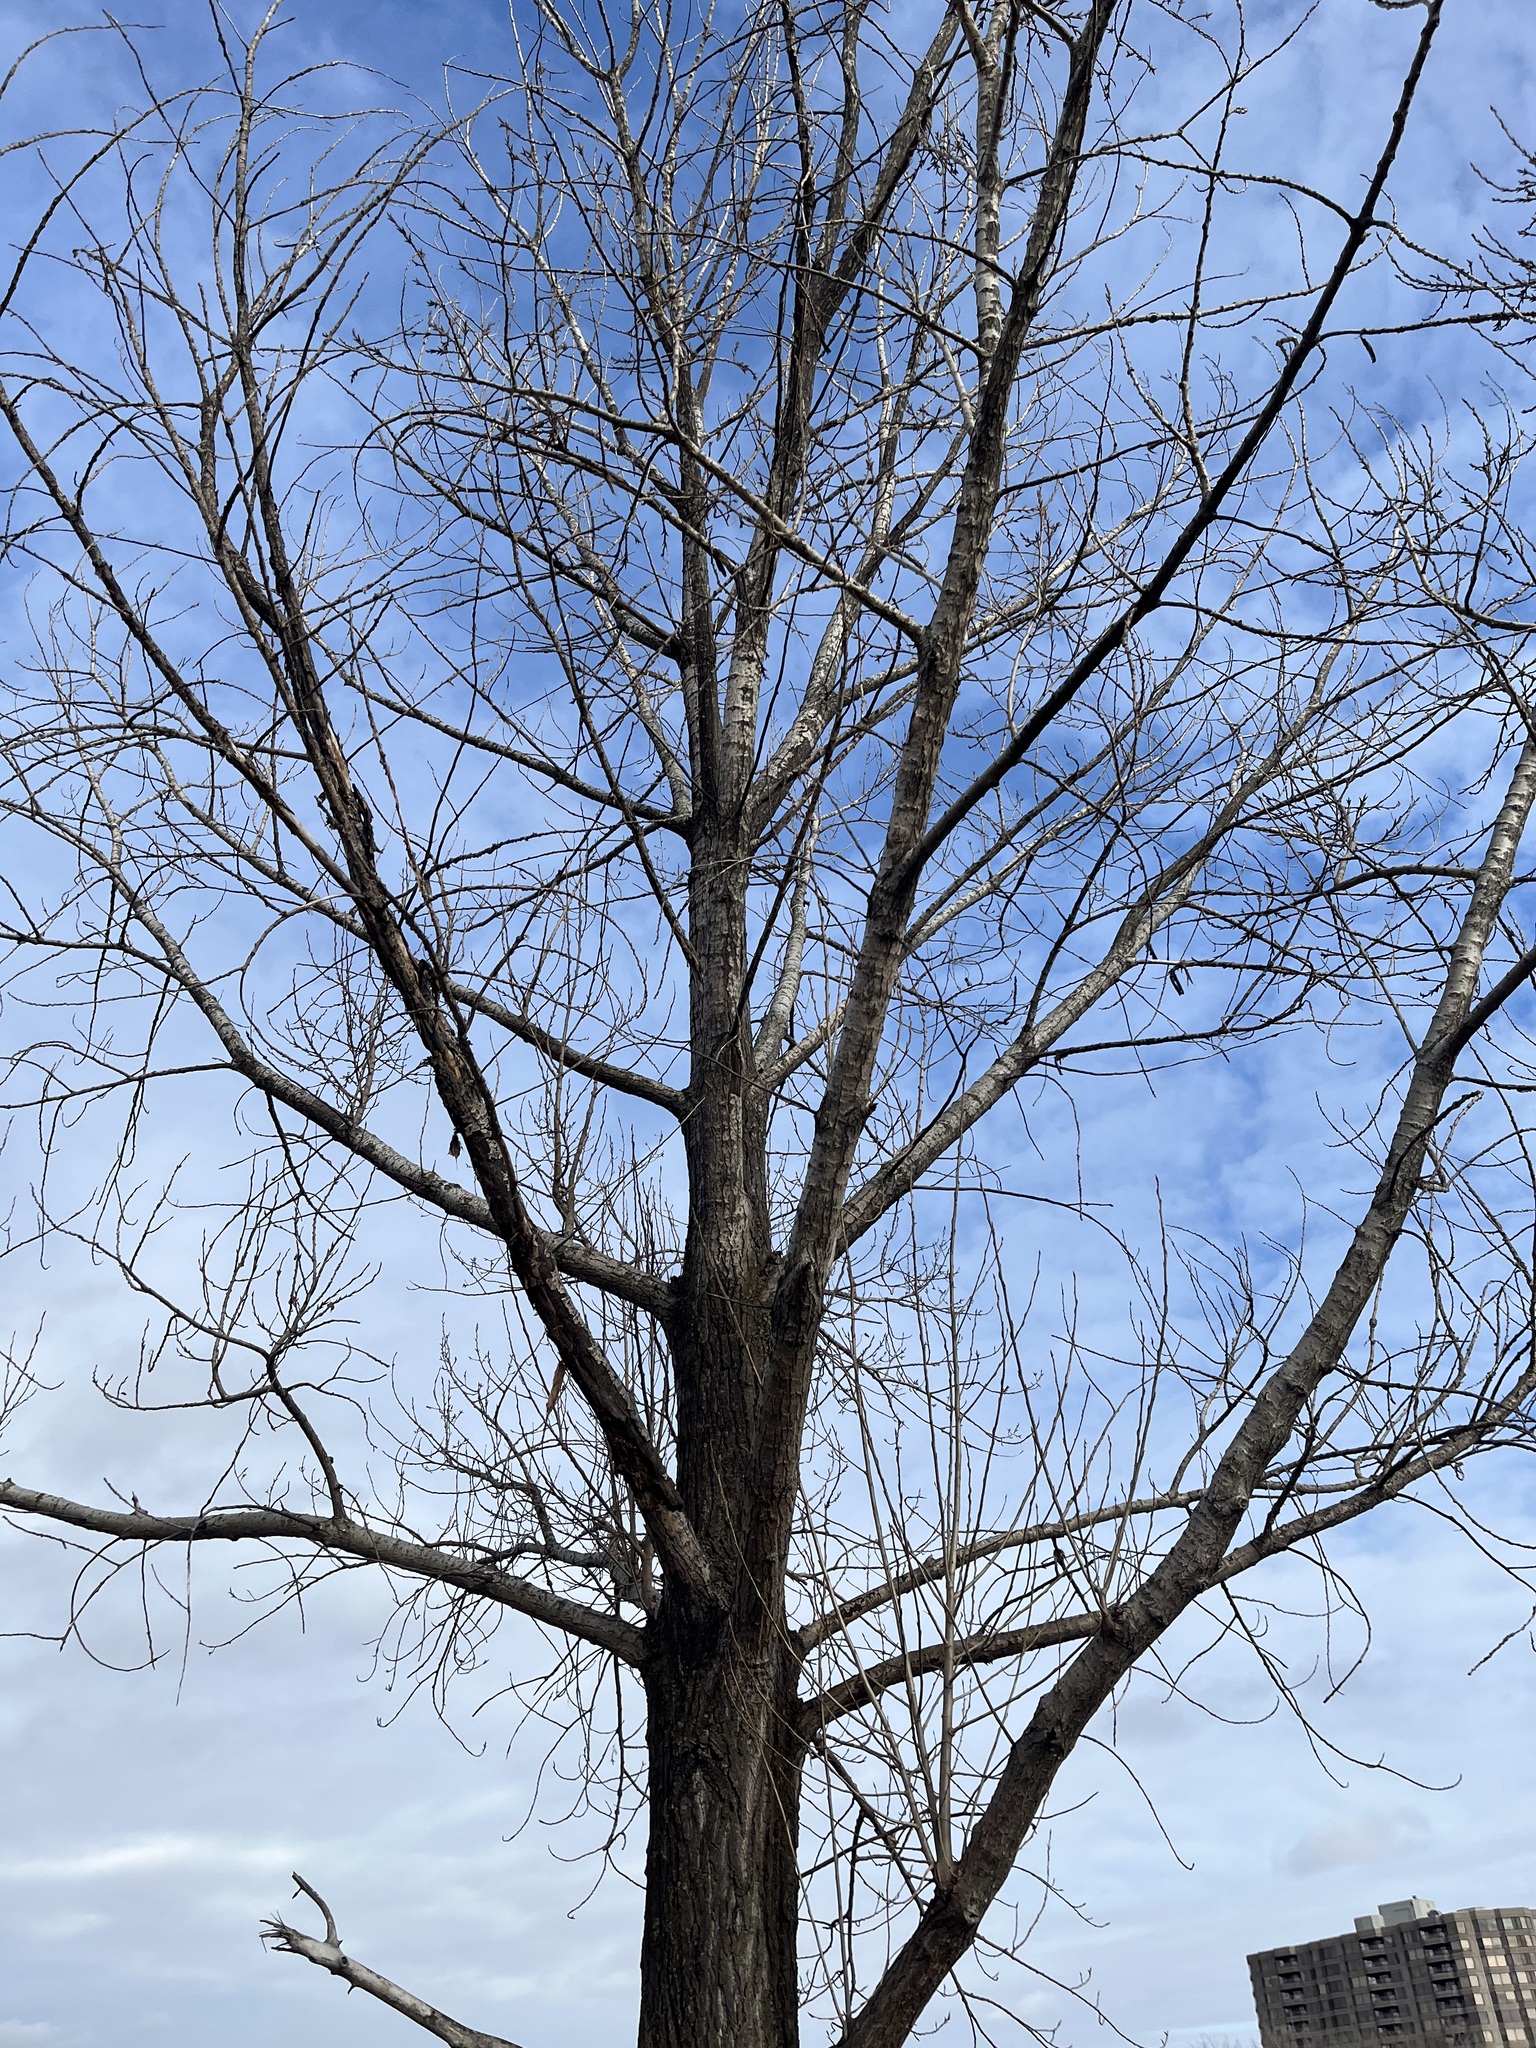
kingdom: Plantae
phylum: Tracheophyta
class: Magnoliopsida
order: Malpighiales
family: Salicaceae
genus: Populus
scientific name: Populus deltoides
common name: Eastern cottonwood
